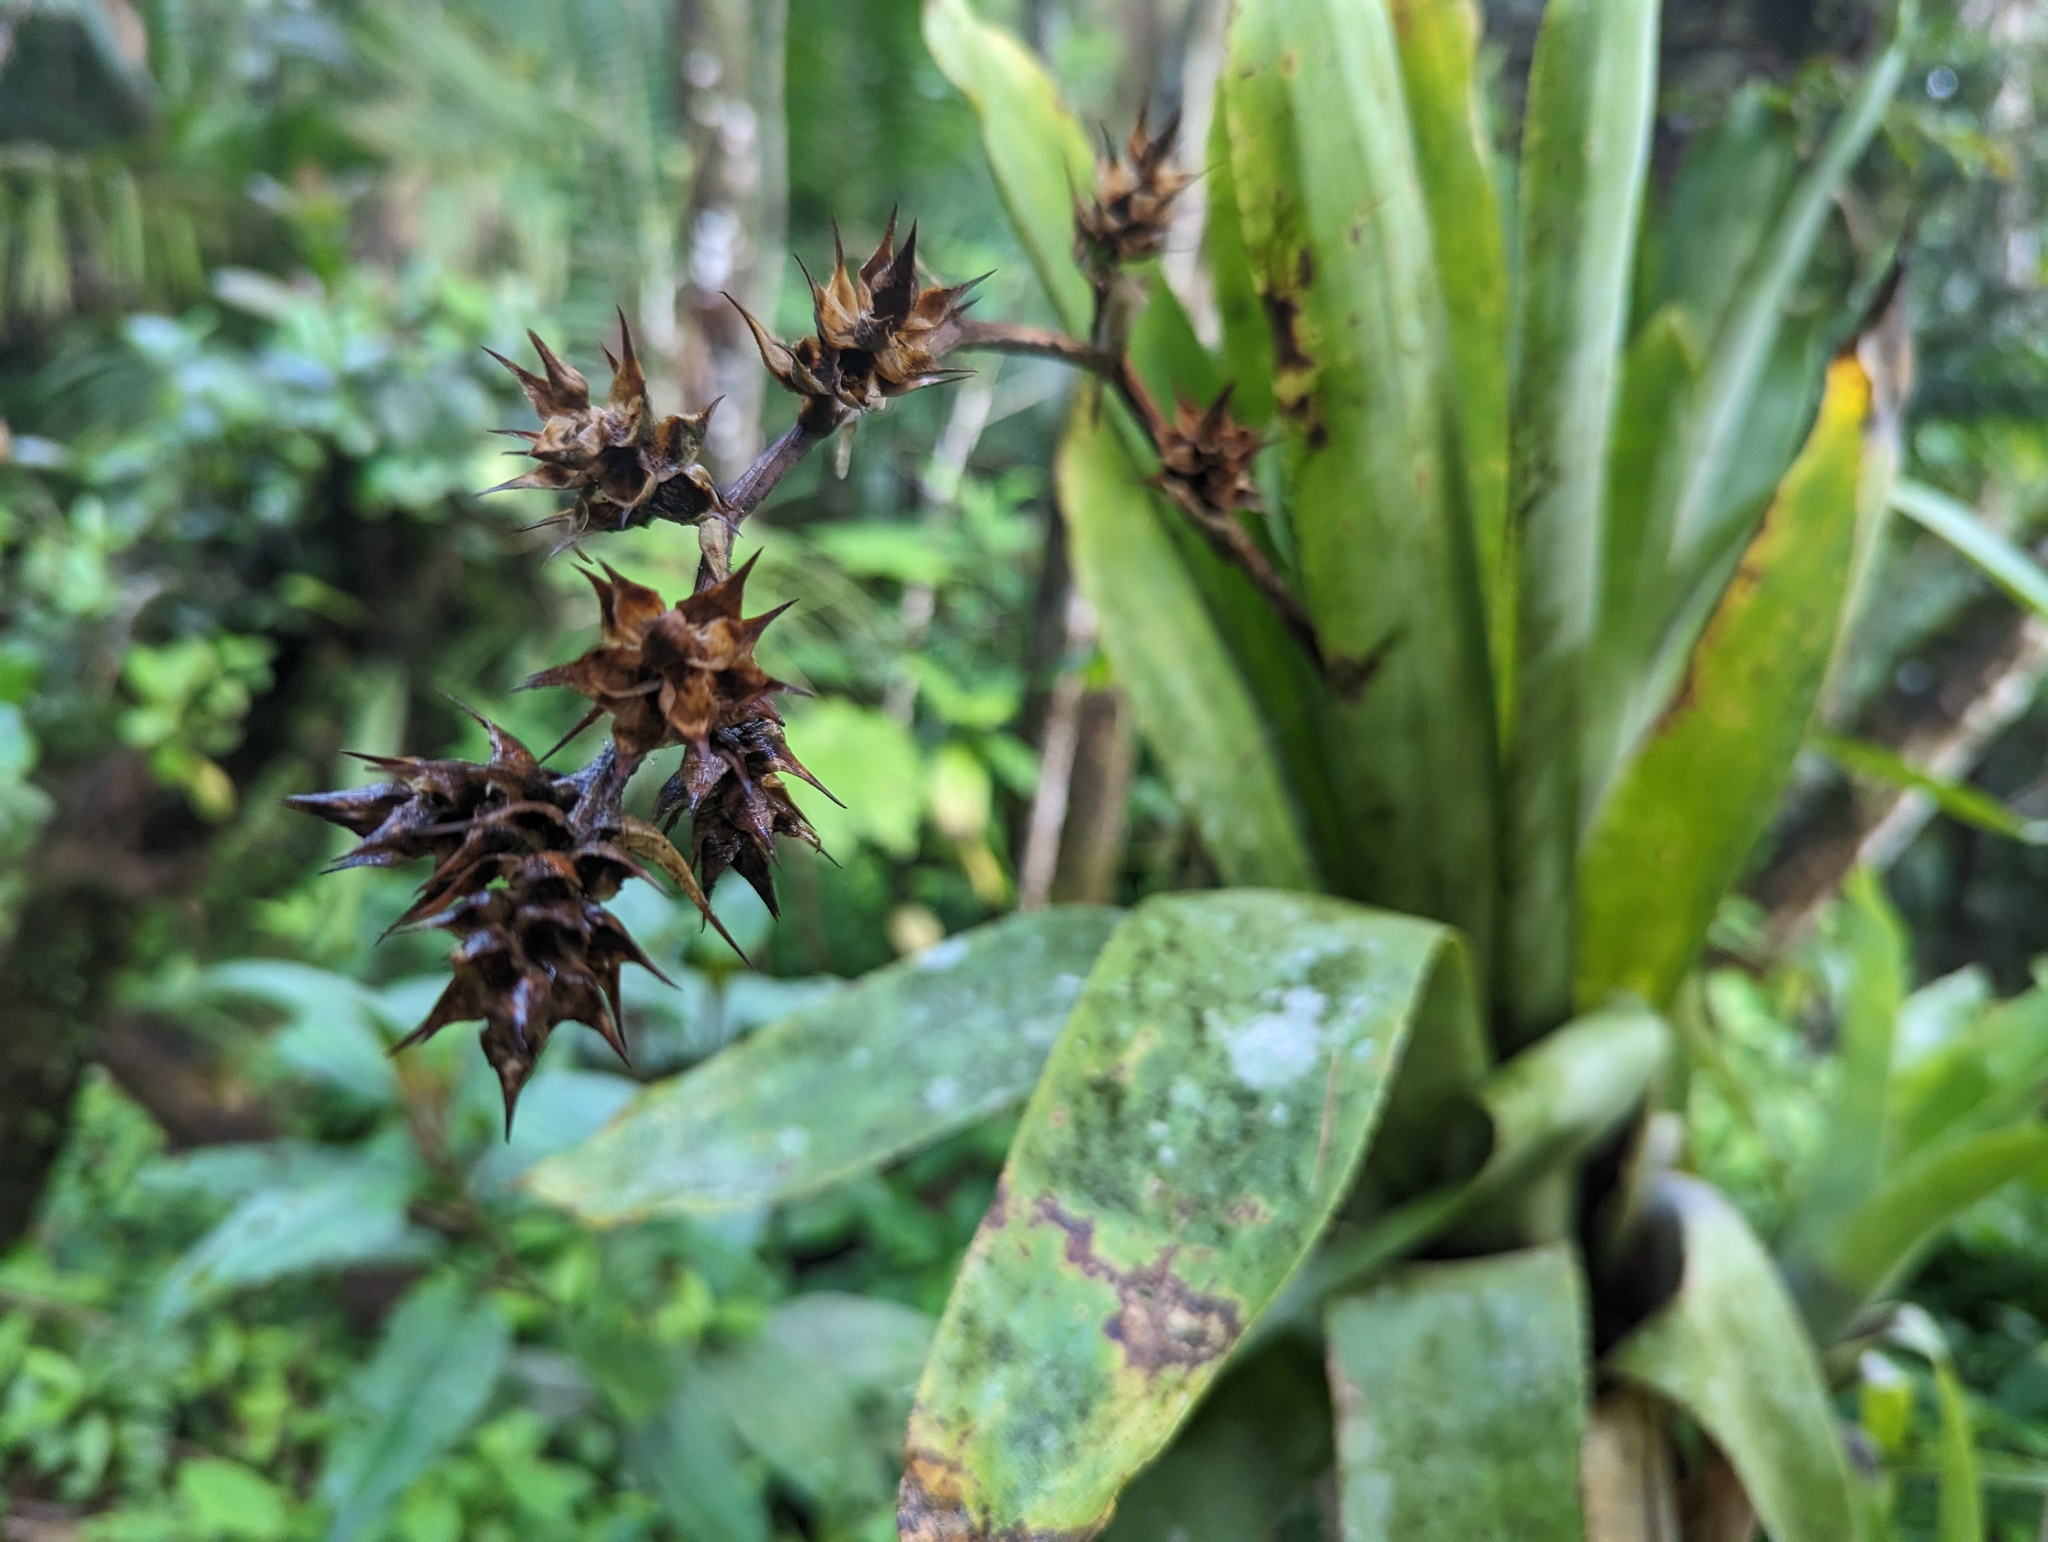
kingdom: Plantae
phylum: Tracheophyta
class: Liliopsida
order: Poales
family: Bromeliaceae
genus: Wittmackia
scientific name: Wittmackia portoricensis
